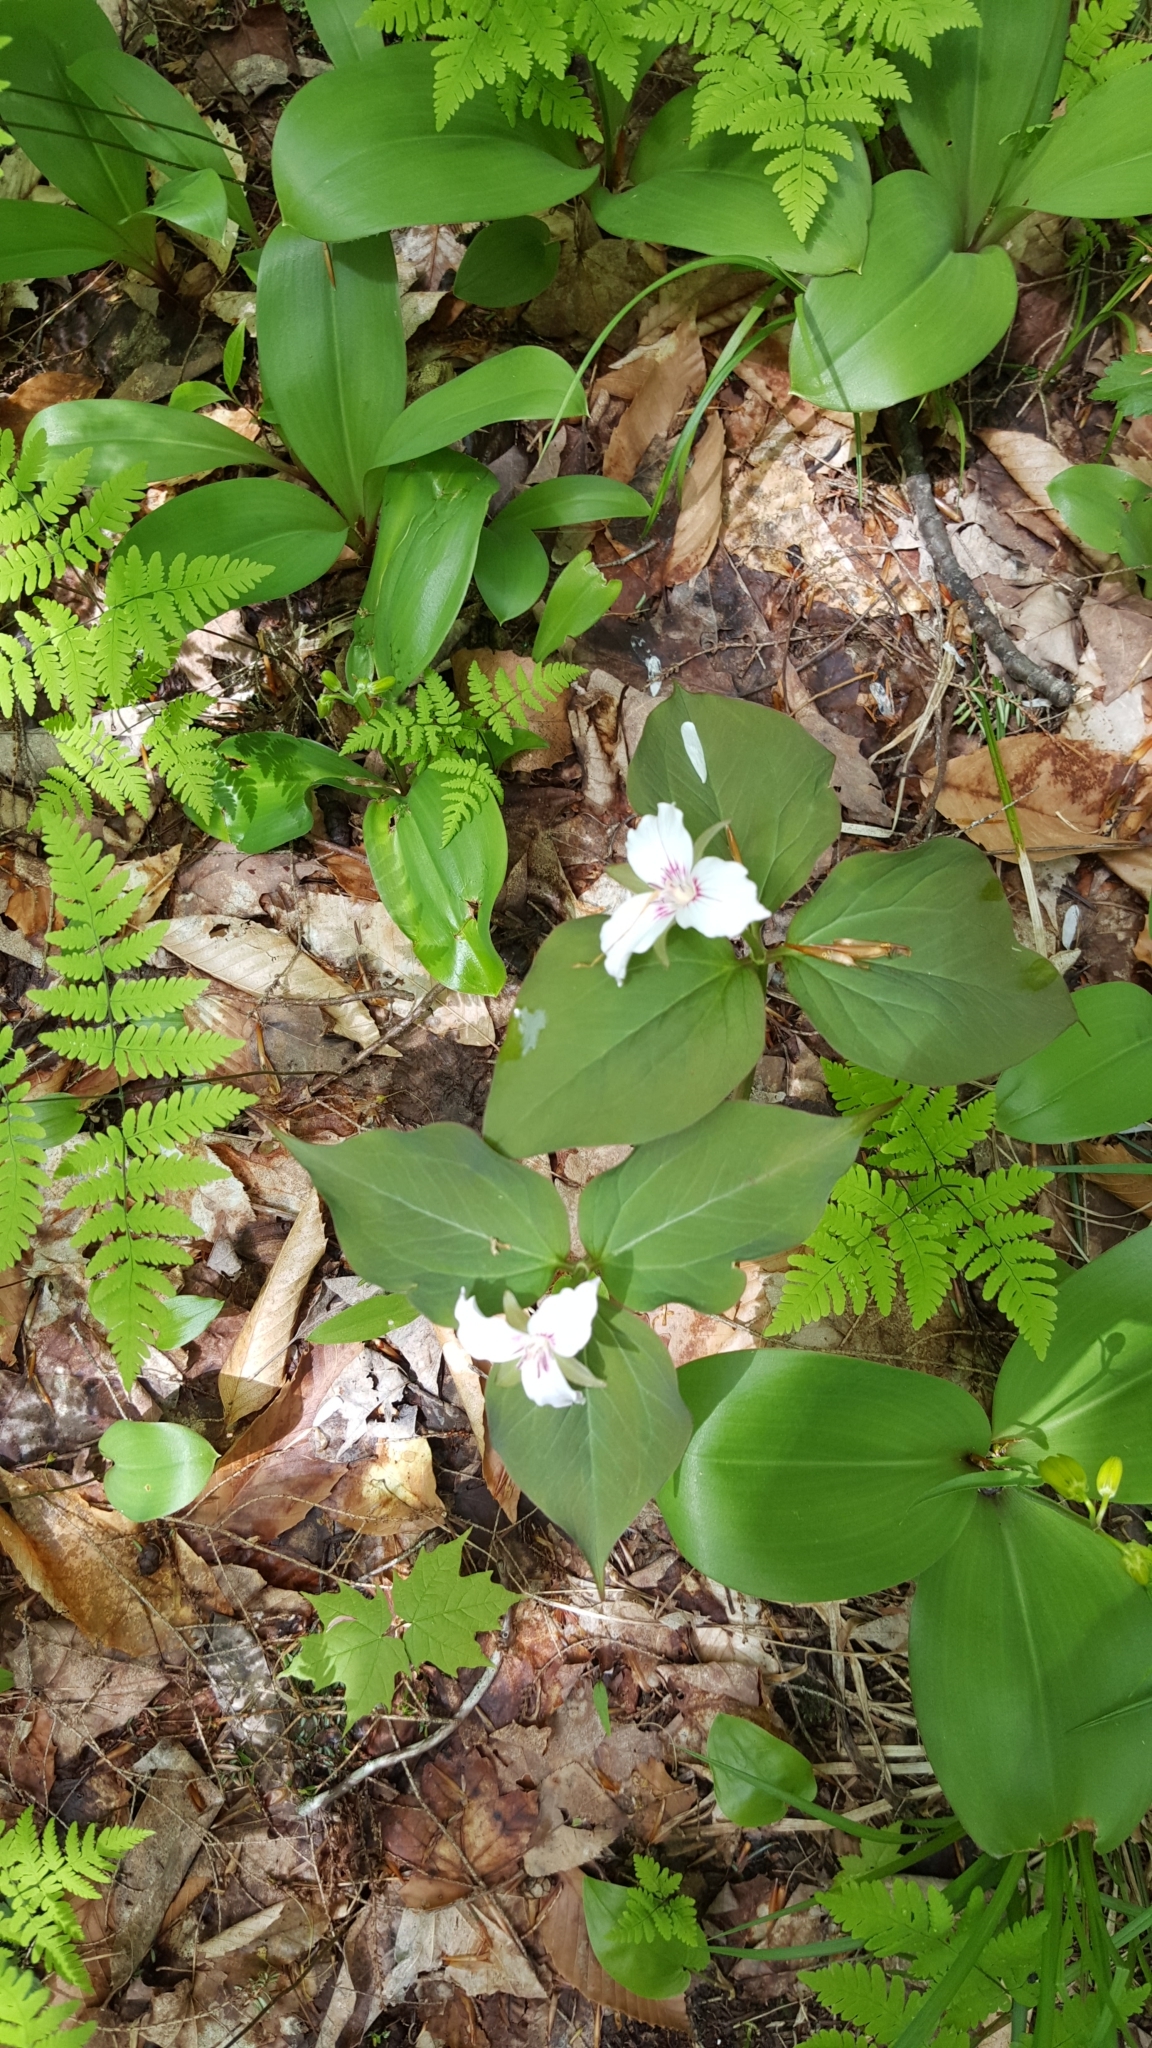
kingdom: Plantae
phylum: Tracheophyta
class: Liliopsida
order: Liliales
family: Melanthiaceae
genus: Trillium
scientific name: Trillium undulatum
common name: Paint trillium
